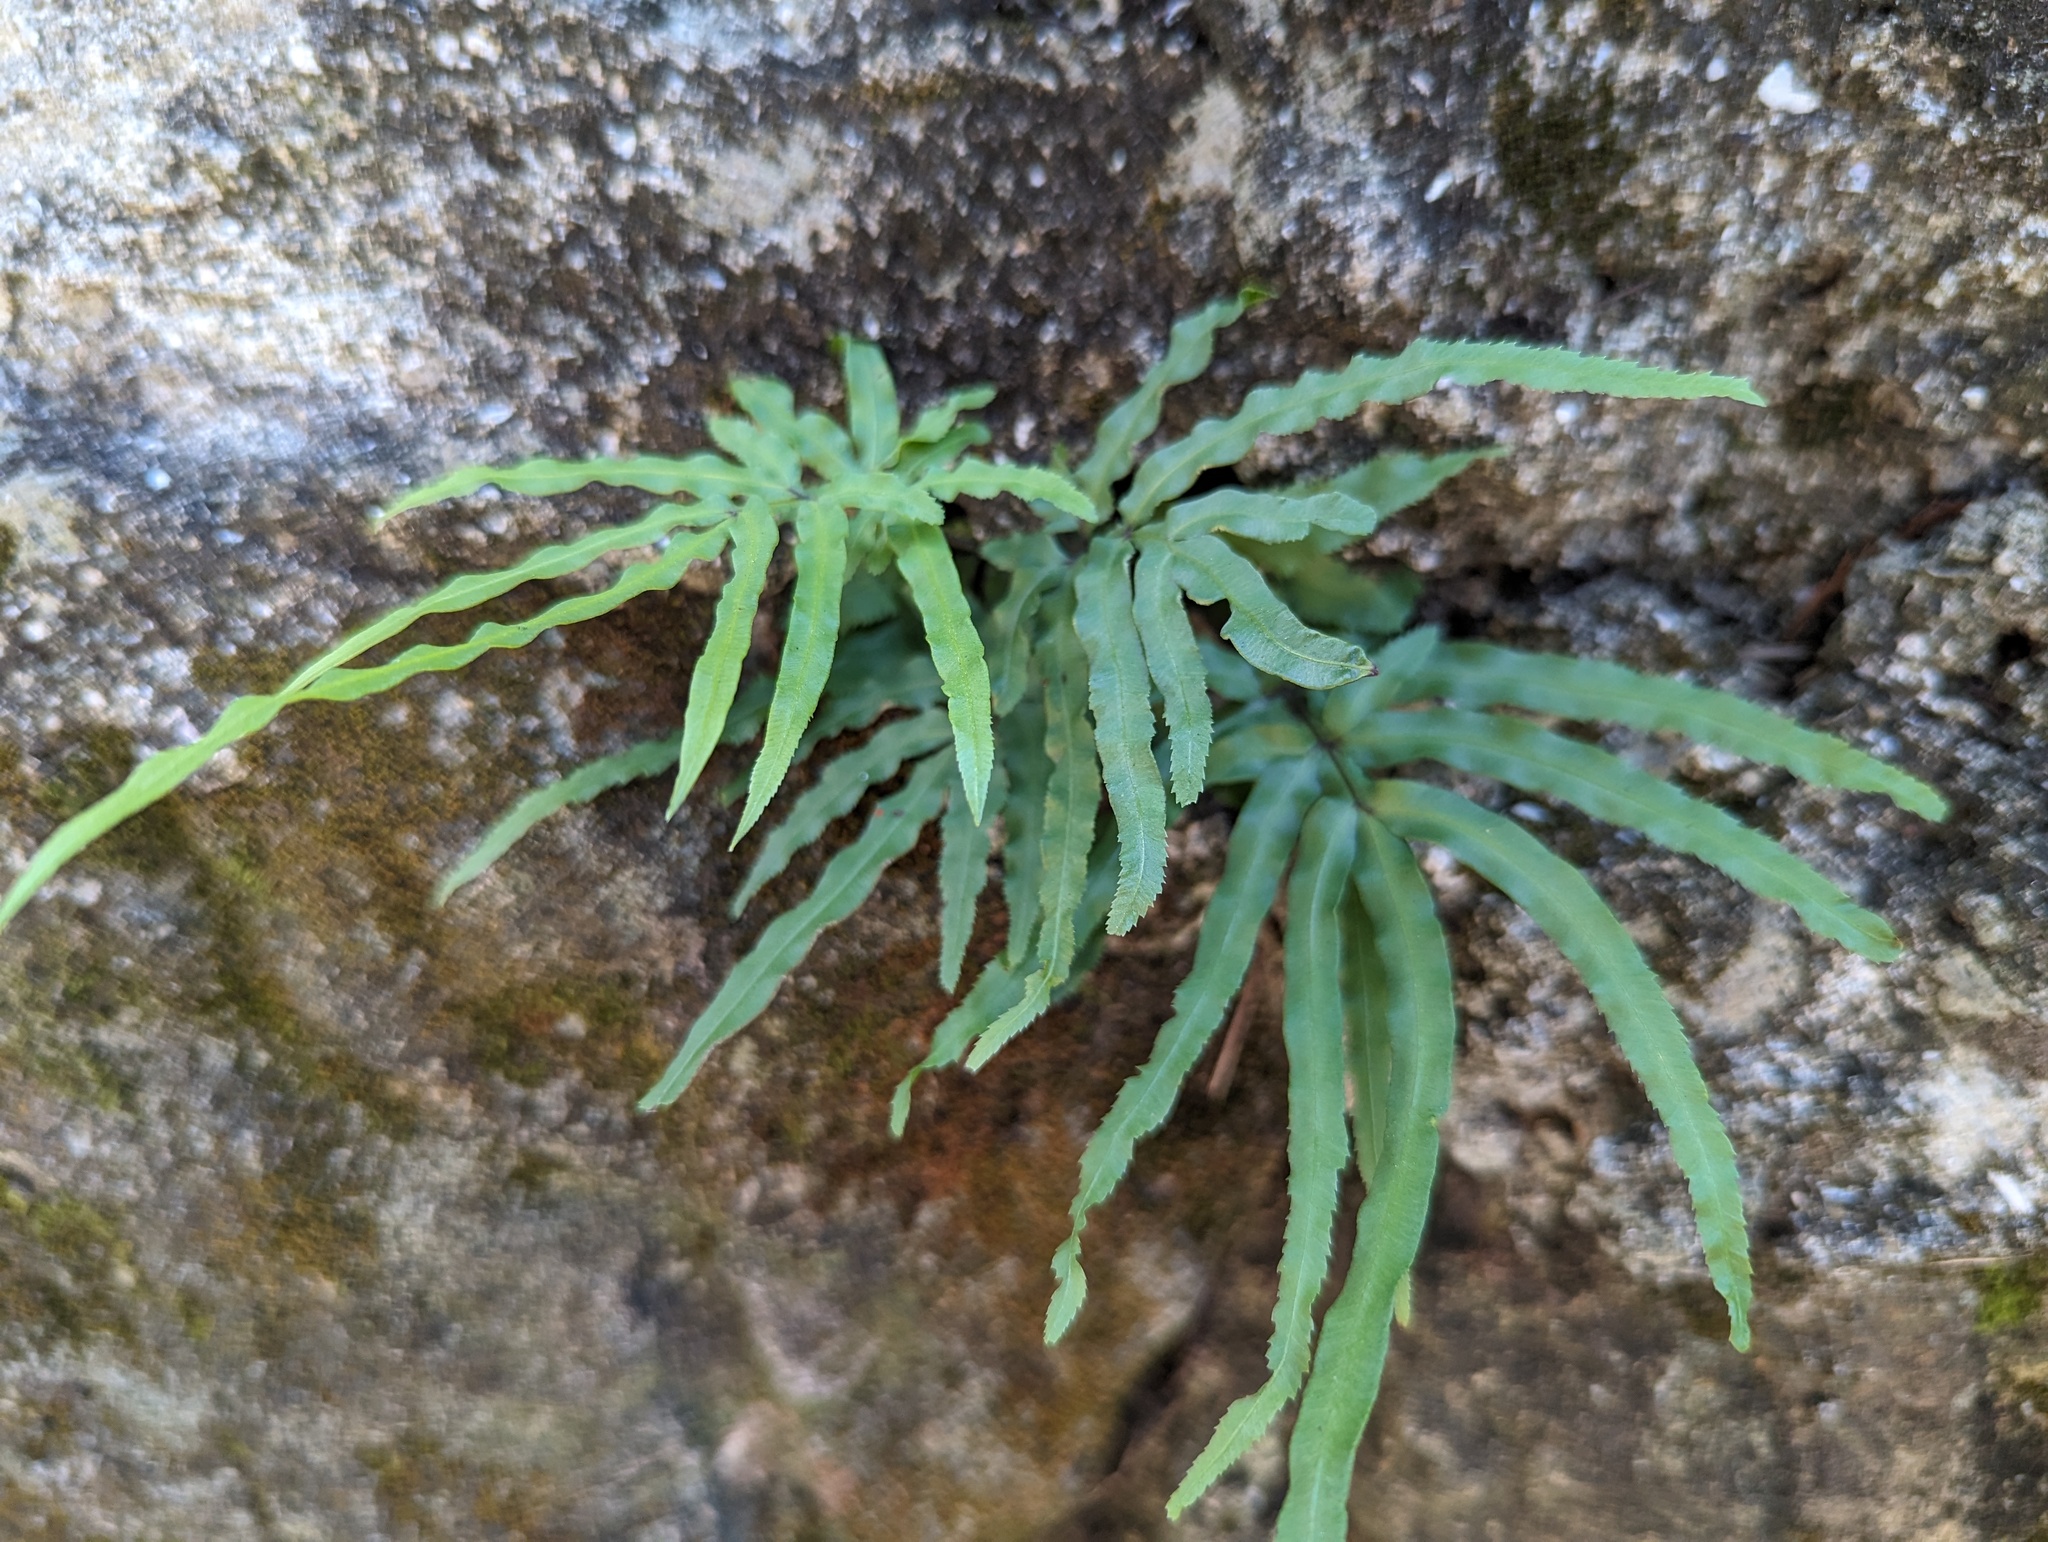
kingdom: Plantae
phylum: Tracheophyta
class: Polypodiopsida
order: Polypodiales
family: Pteridaceae
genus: Pteris
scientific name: Pteris multifida
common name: Spider brake
